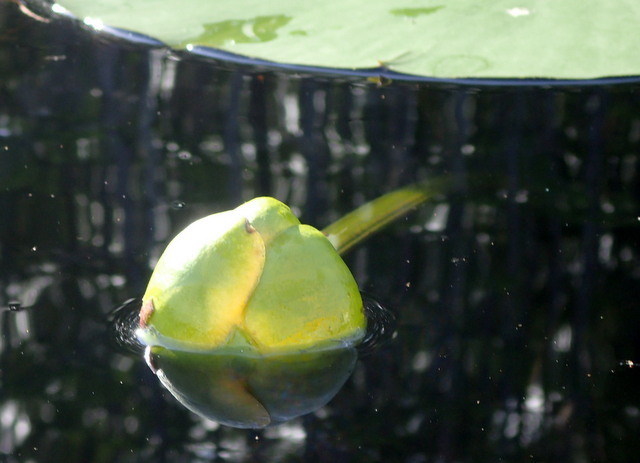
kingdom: Plantae
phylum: Tracheophyta
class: Magnoliopsida
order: Nymphaeales
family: Nymphaeaceae
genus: Nuphar
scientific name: Nuphar advena
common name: Spatter-dock
